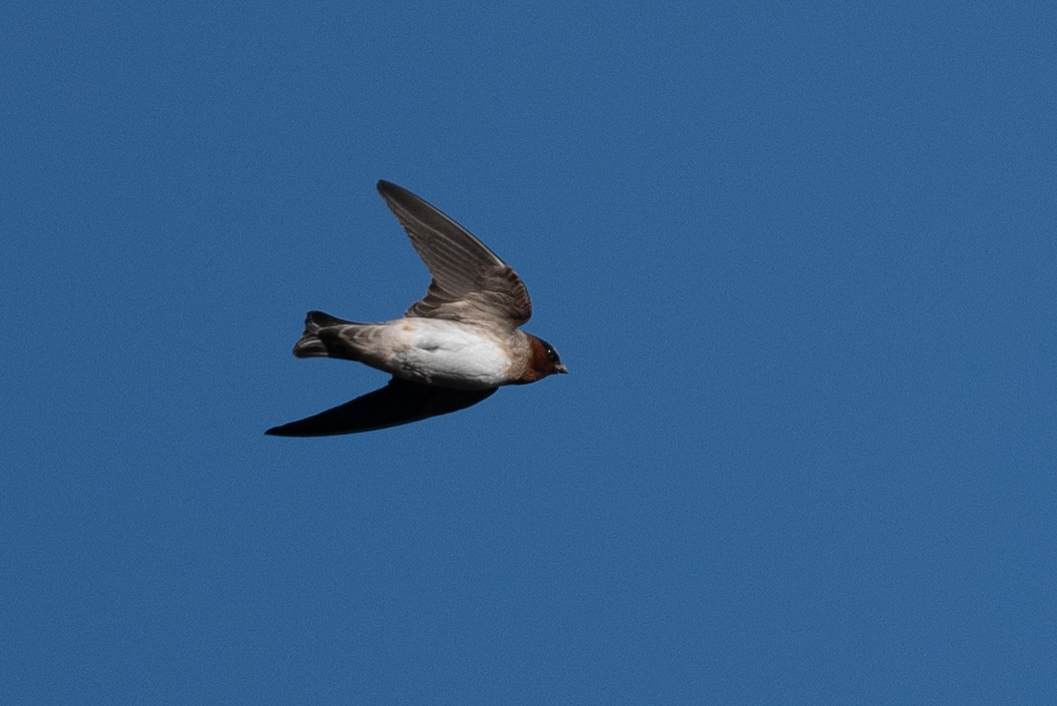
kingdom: Animalia
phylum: Chordata
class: Aves
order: Passeriformes
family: Hirundinidae
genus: Petrochelidon
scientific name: Petrochelidon pyrrhonota
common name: American cliff swallow
